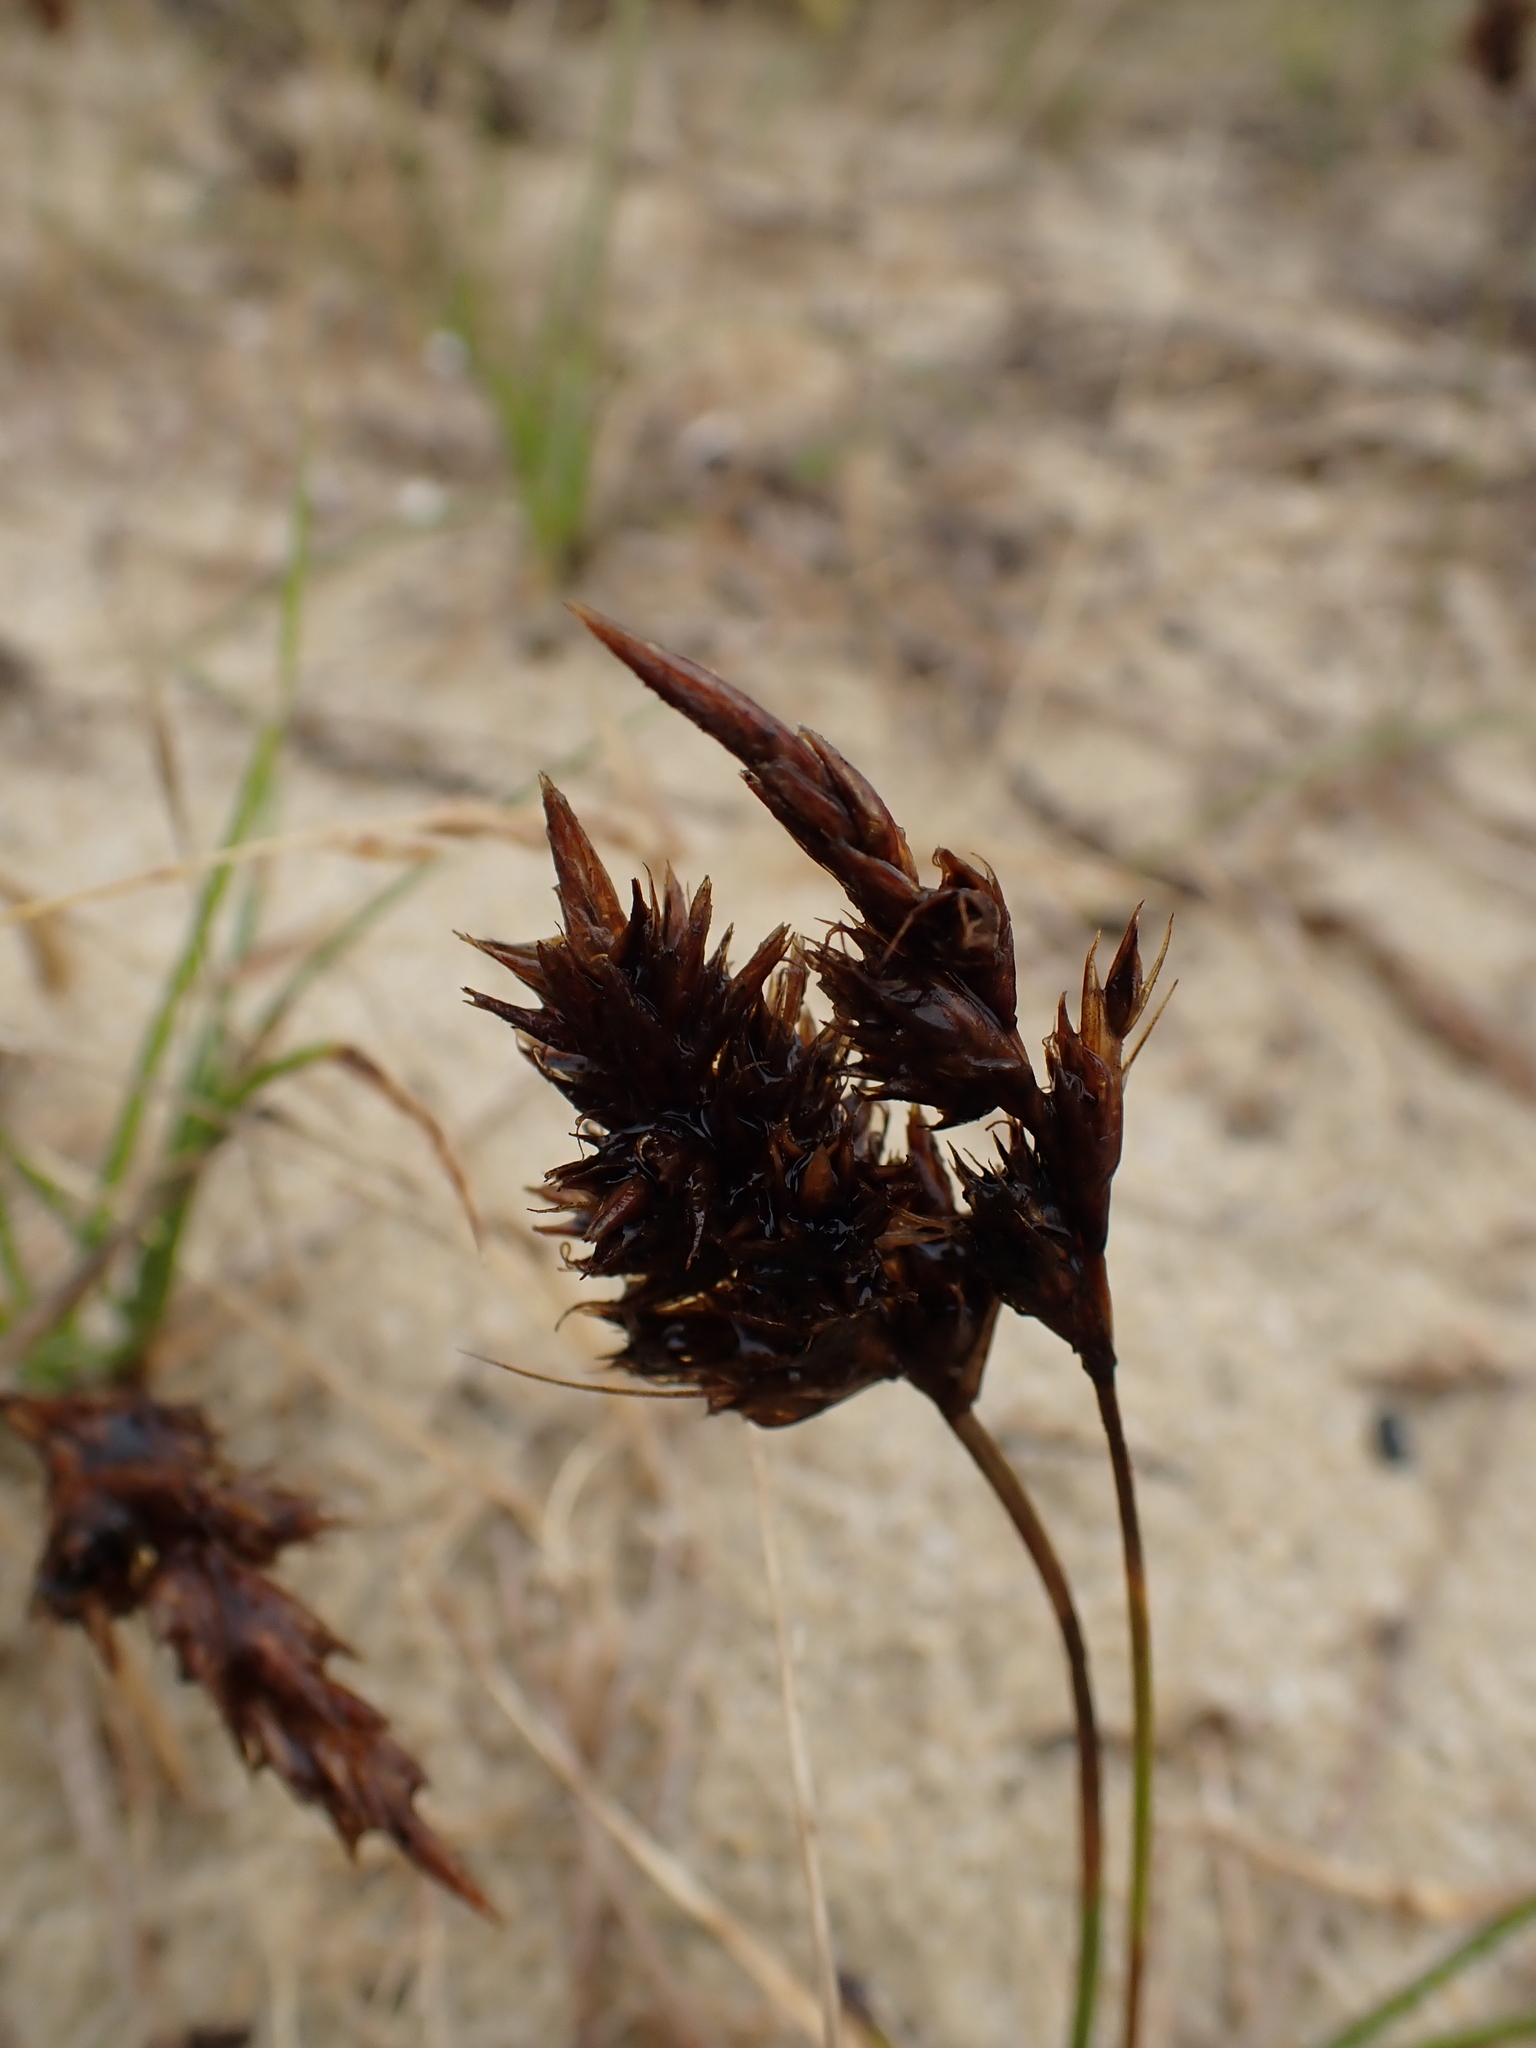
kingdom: Plantae
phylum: Tracheophyta
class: Liliopsida
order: Poales
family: Cyperaceae
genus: Carex
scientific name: Carex arenaria
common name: Sand sedge
